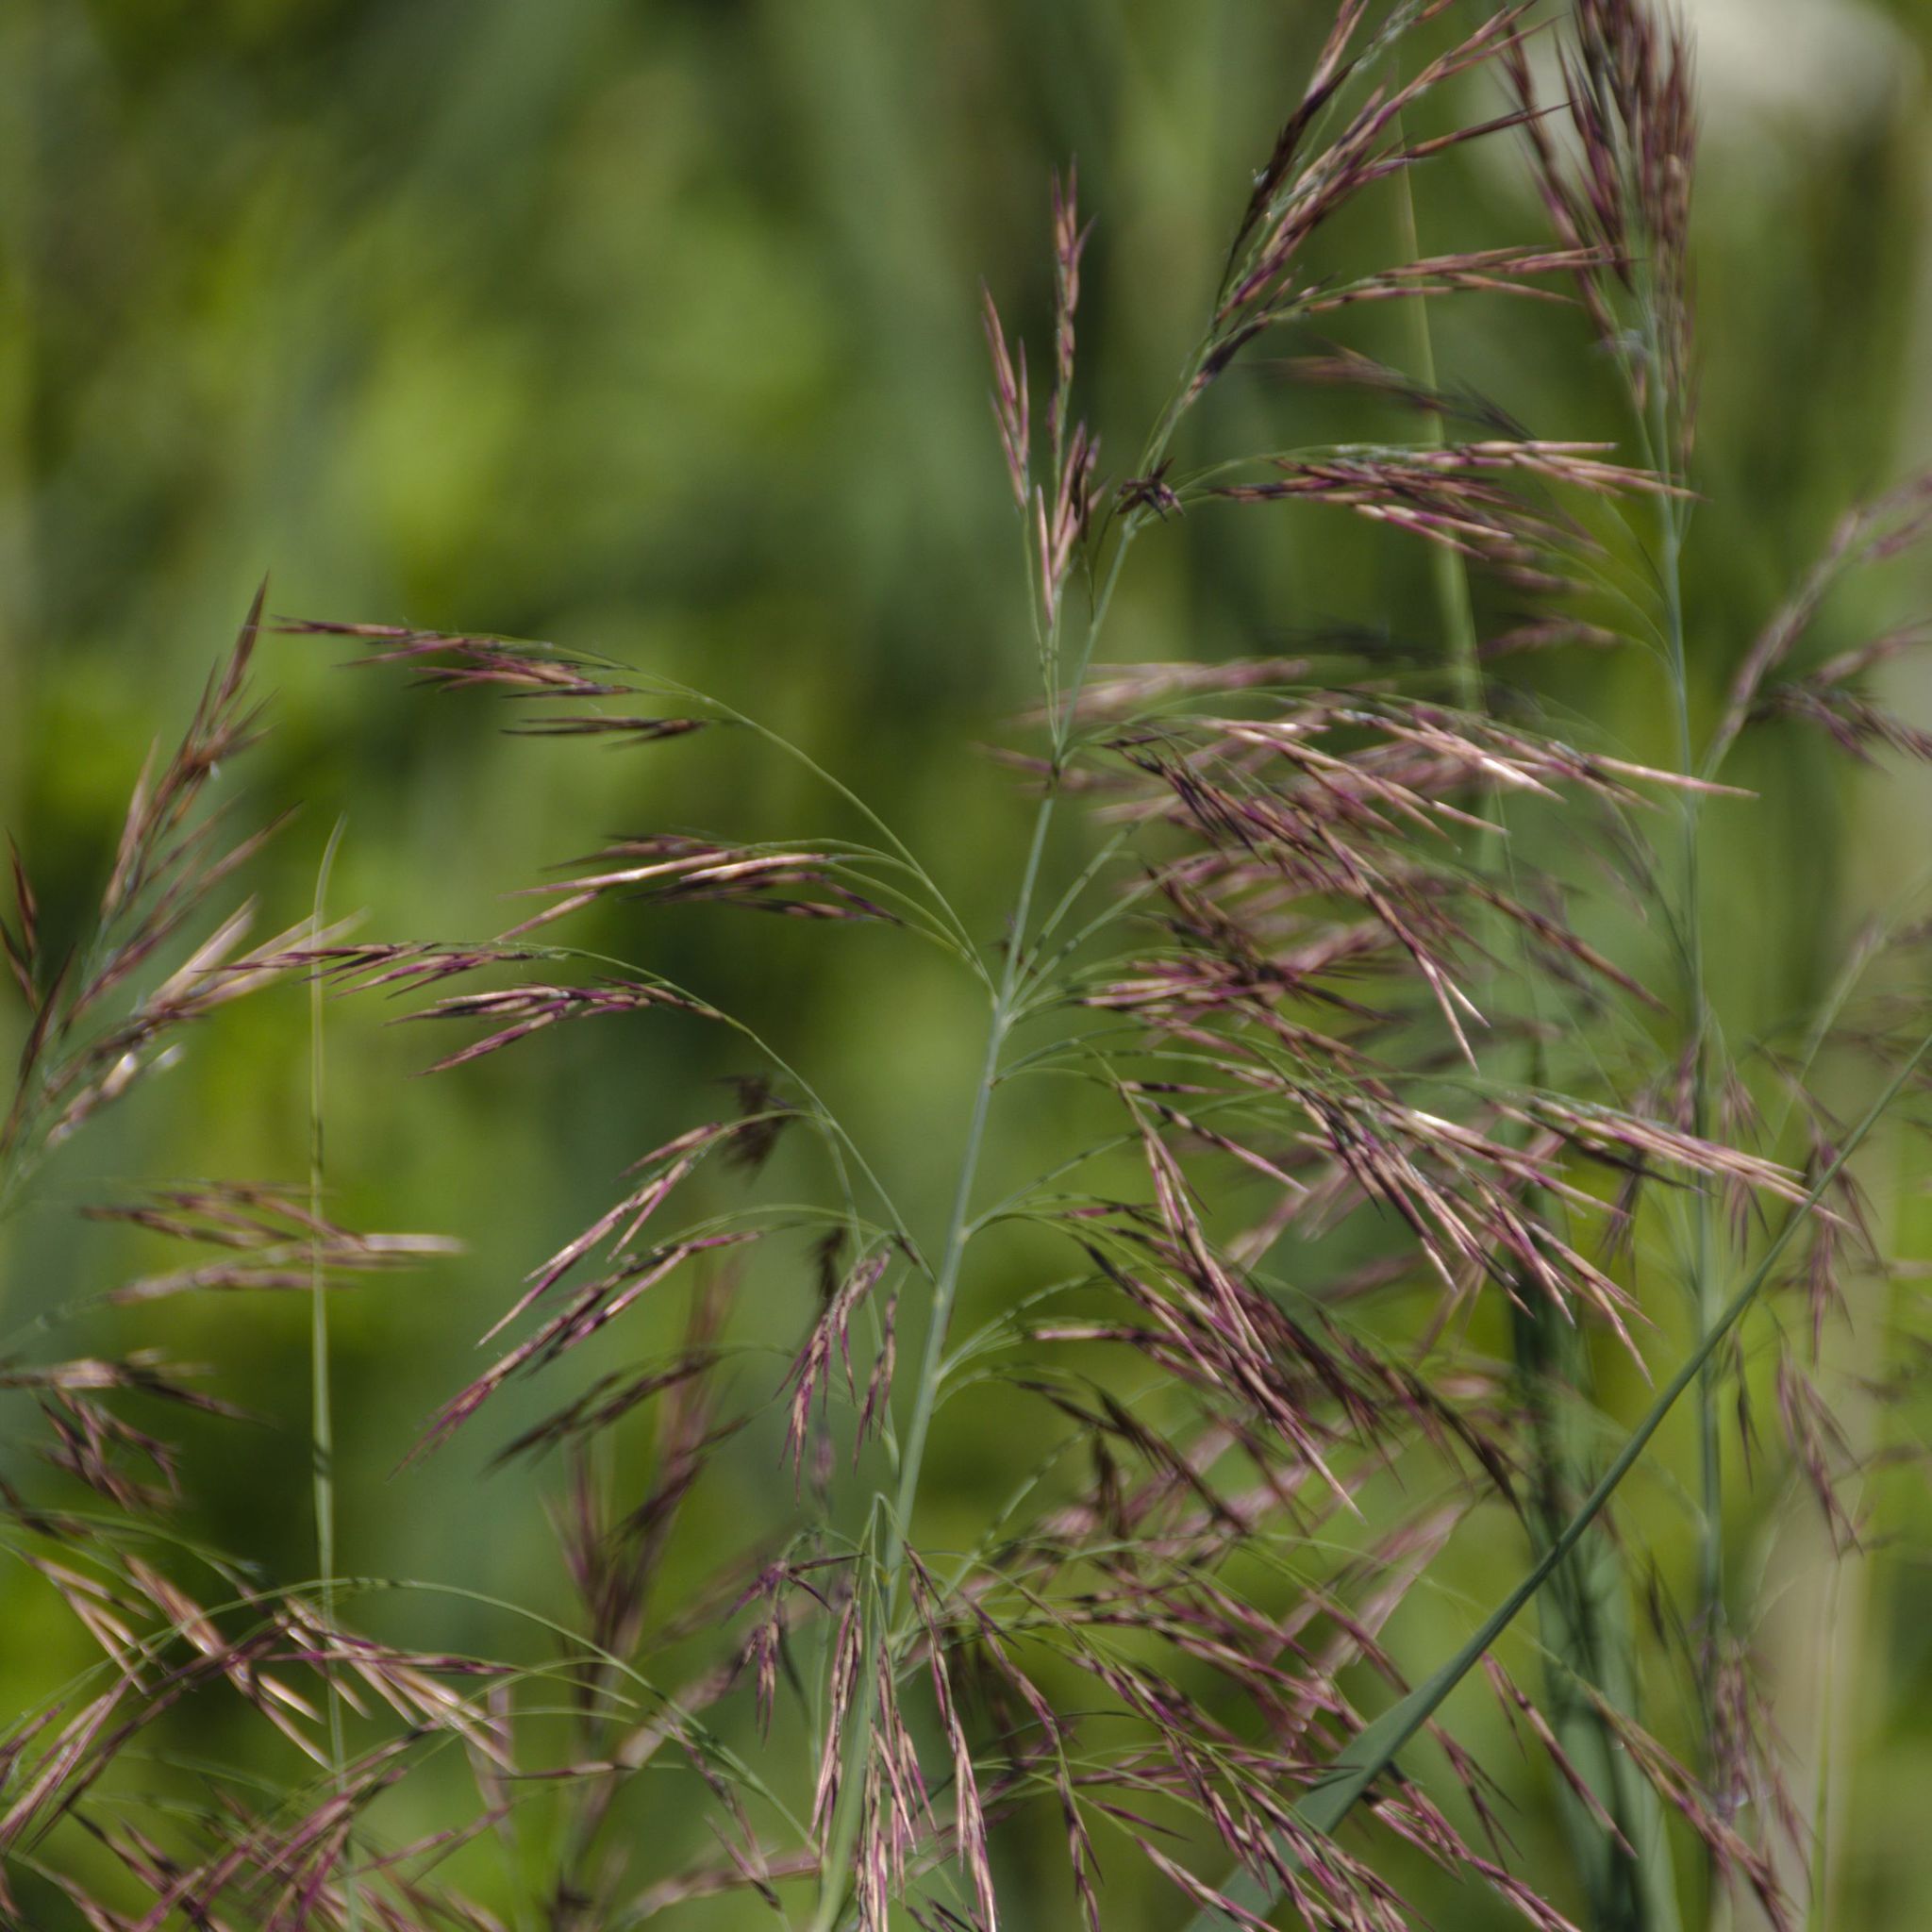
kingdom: Plantae
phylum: Tracheophyta
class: Liliopsida
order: Poales
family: Poaceae
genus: Phragmites
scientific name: Phragmites australis
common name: Common reed
